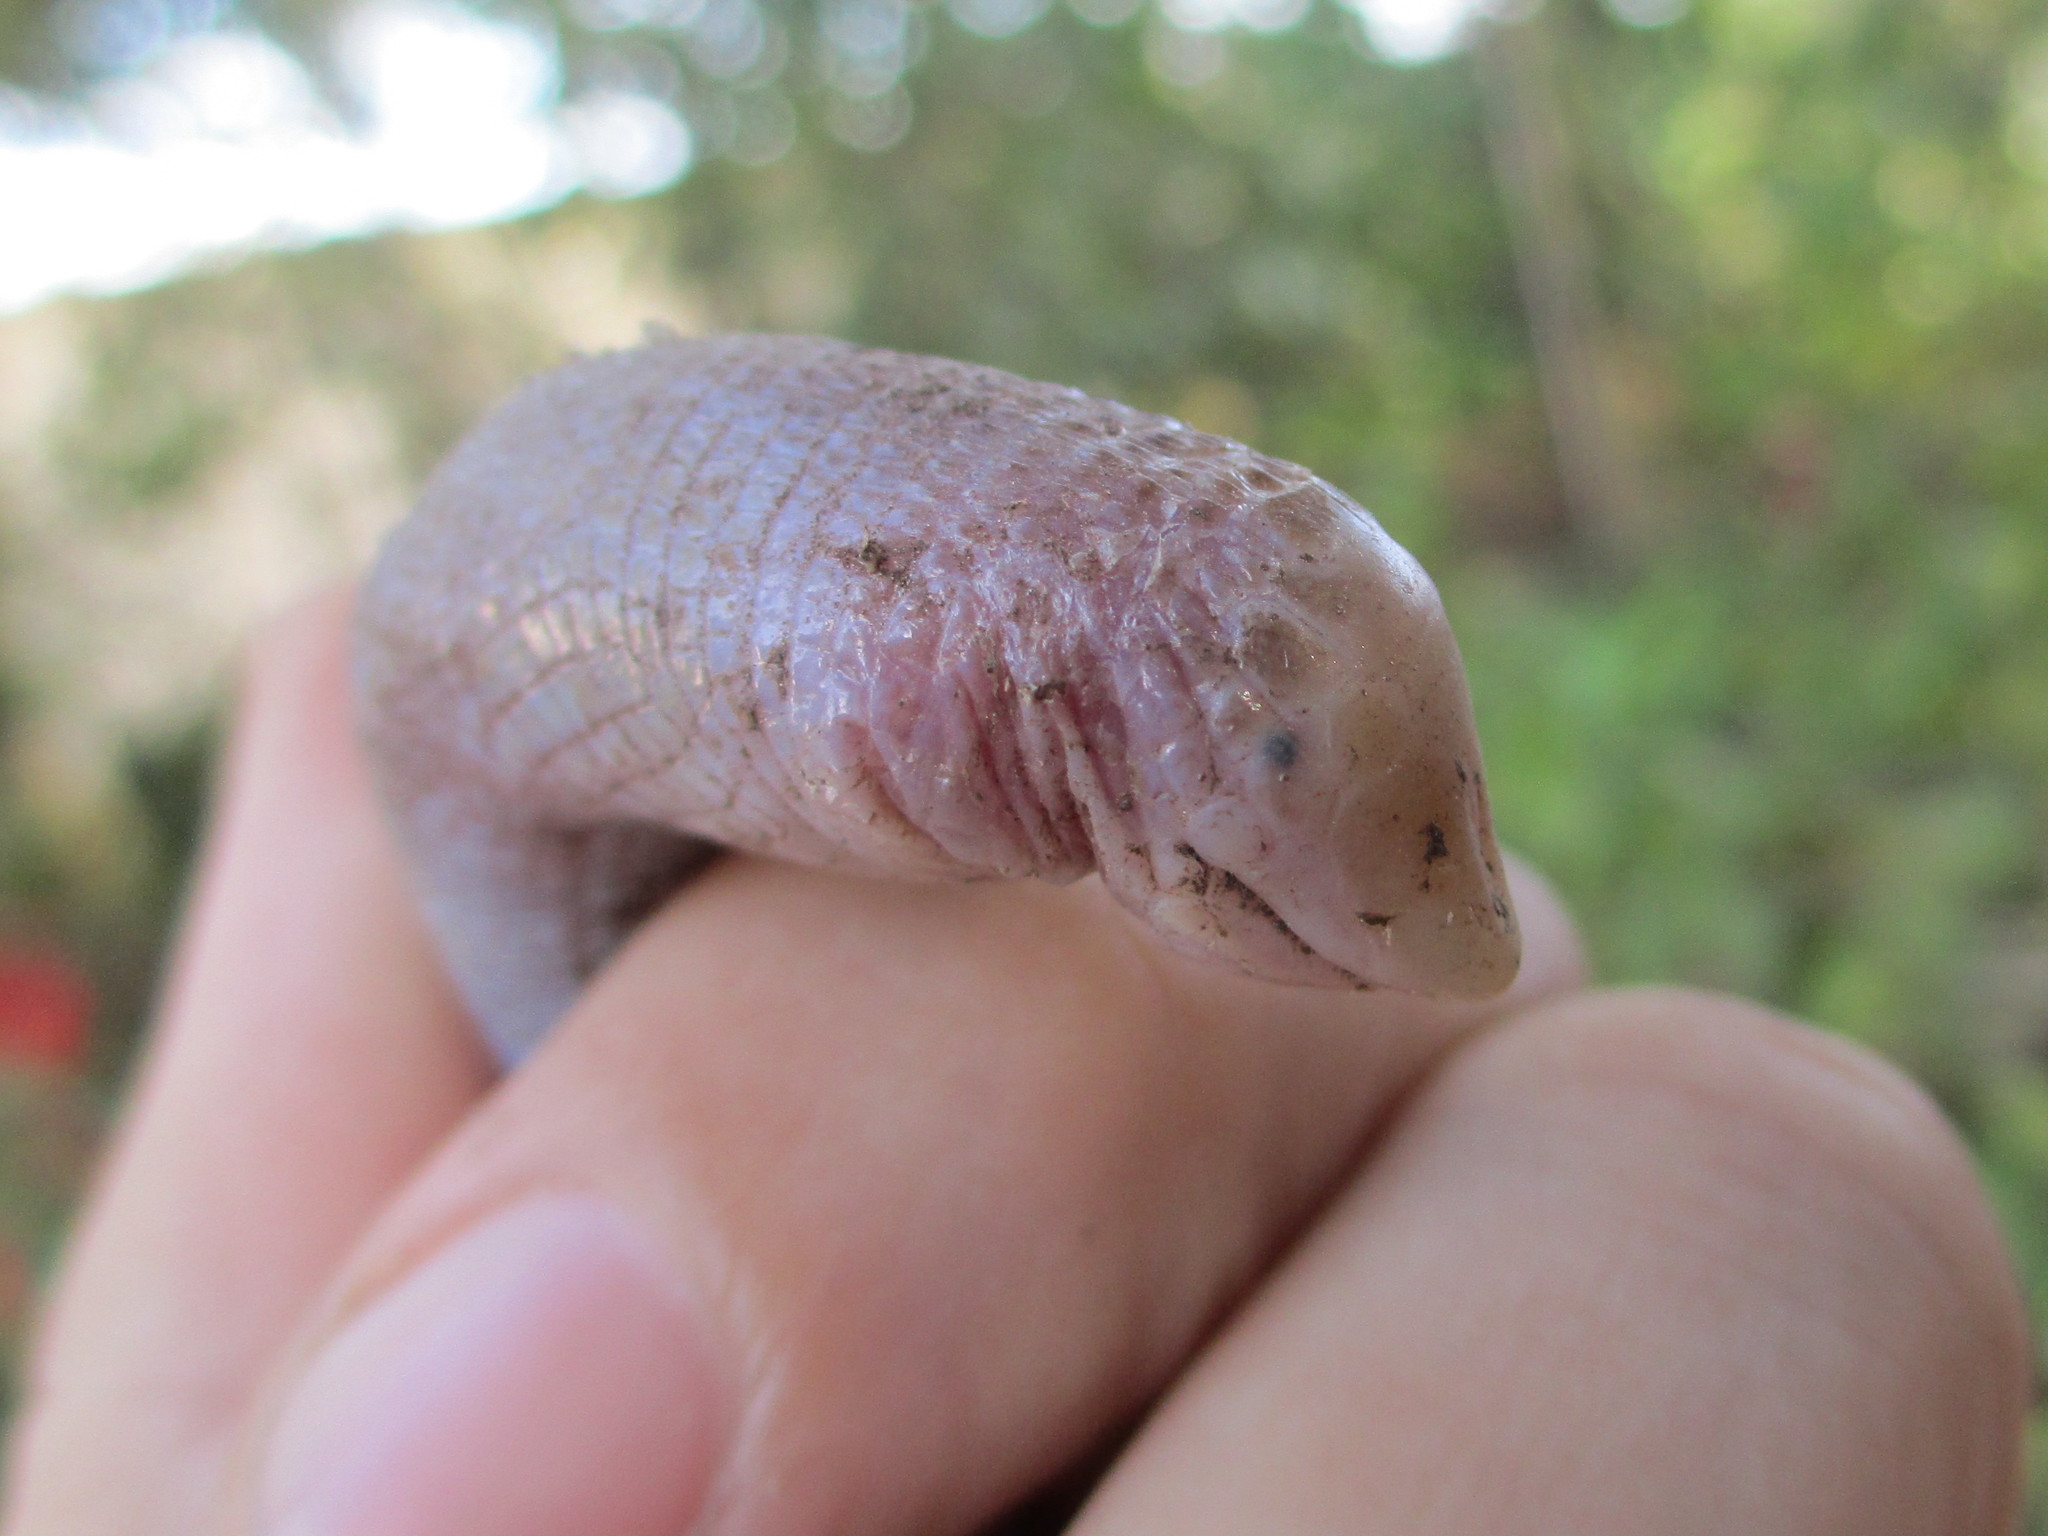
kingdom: Animalia
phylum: Chordata
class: Squamata
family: Amphisbaenidae
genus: Leposternon
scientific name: Leposternon microcephalum
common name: Smallhead worm lizard
